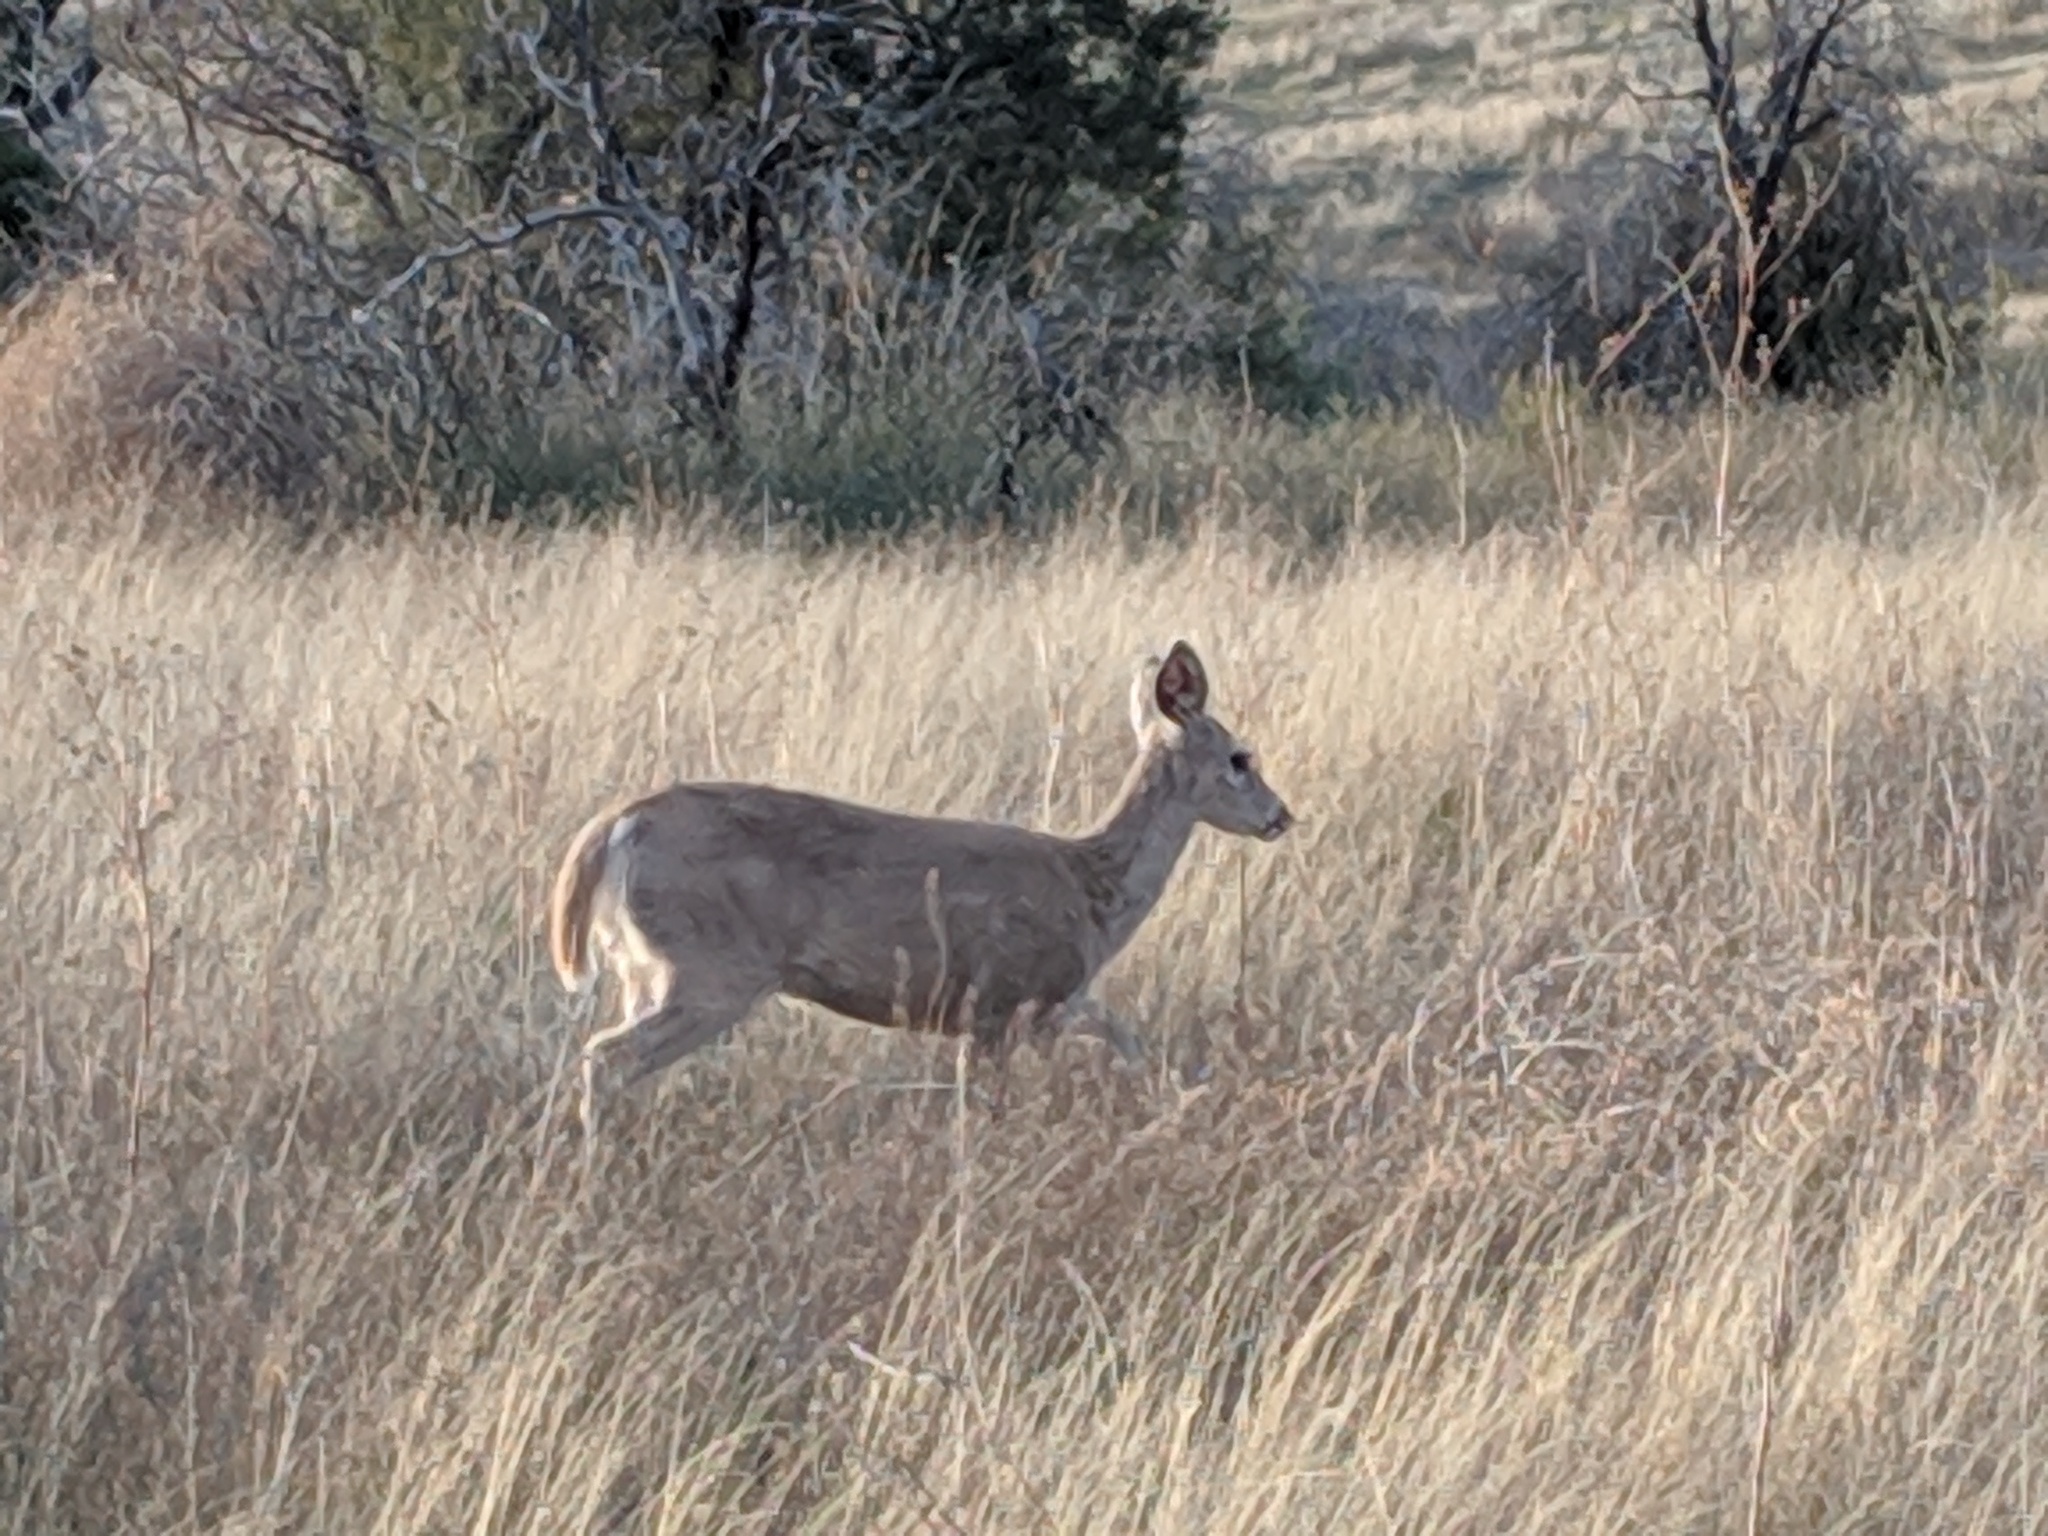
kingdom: Animalia
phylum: Chordata
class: Mammalia
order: Artiodactyla
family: Cervidae
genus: Odocoileus
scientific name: Odocoileus virginianus
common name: White-tailed deer
